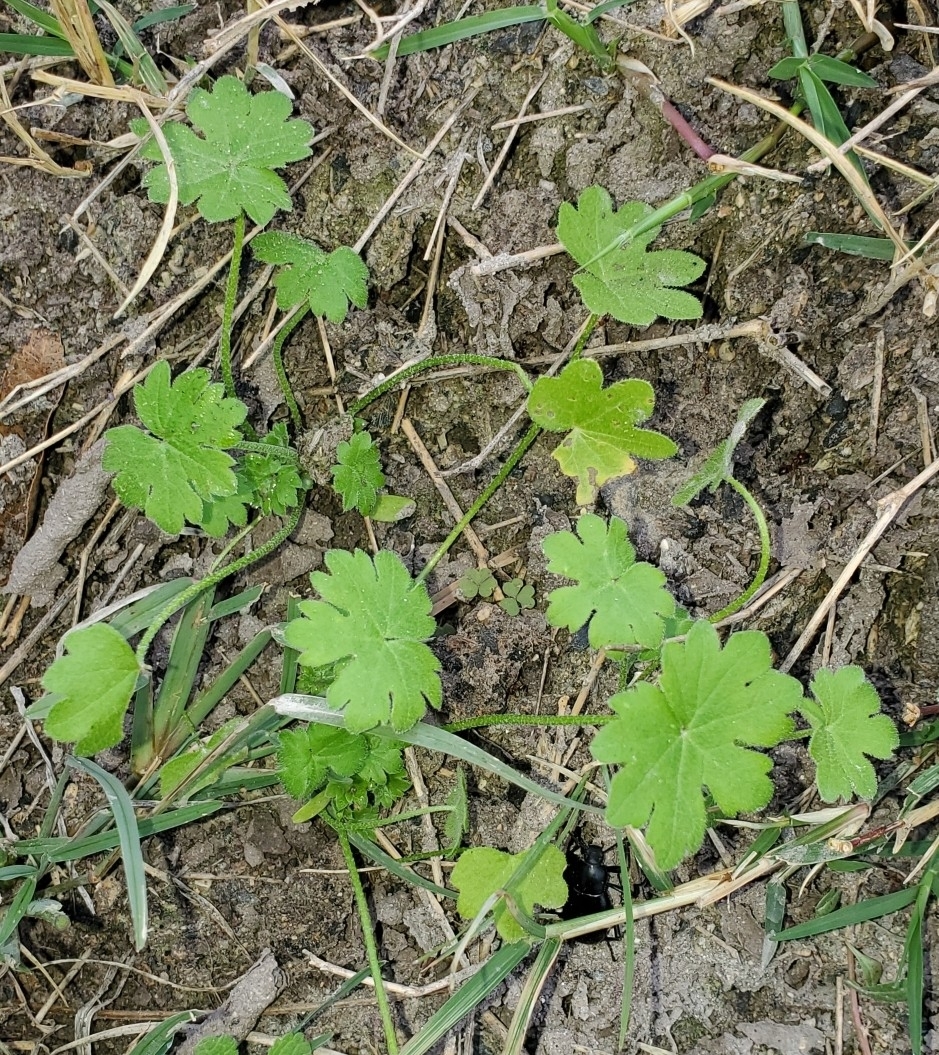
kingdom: Plantae
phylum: Tracheophyta
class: Magnoliopsida
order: Apiales
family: Apiaceae
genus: Bowlesia
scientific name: Bowlesia incana
